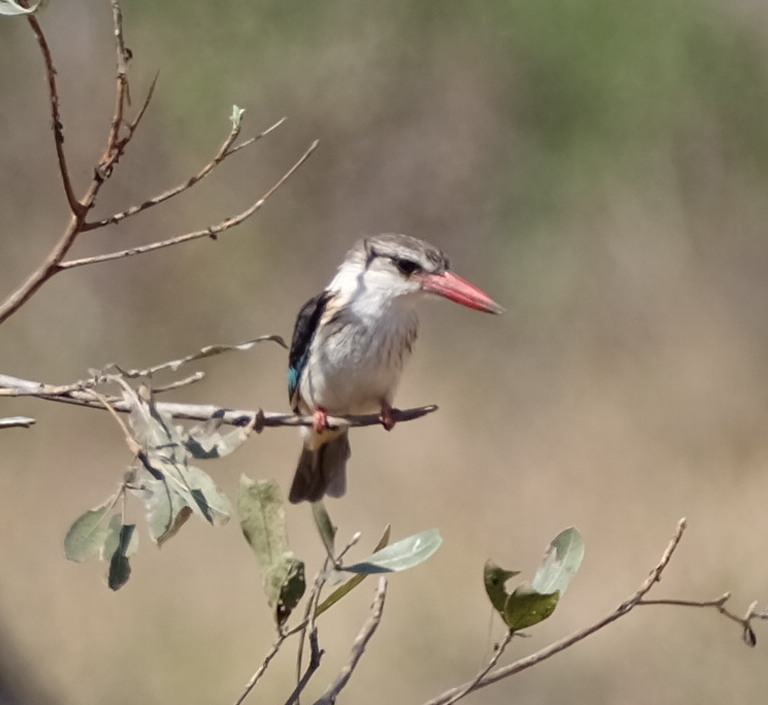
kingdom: Animalia
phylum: Chordata
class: Aves
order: Coraciiformes
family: Alcedinidae
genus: Halcyon
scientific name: Halcyon albiventris
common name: Brown-hooded kingfisher
